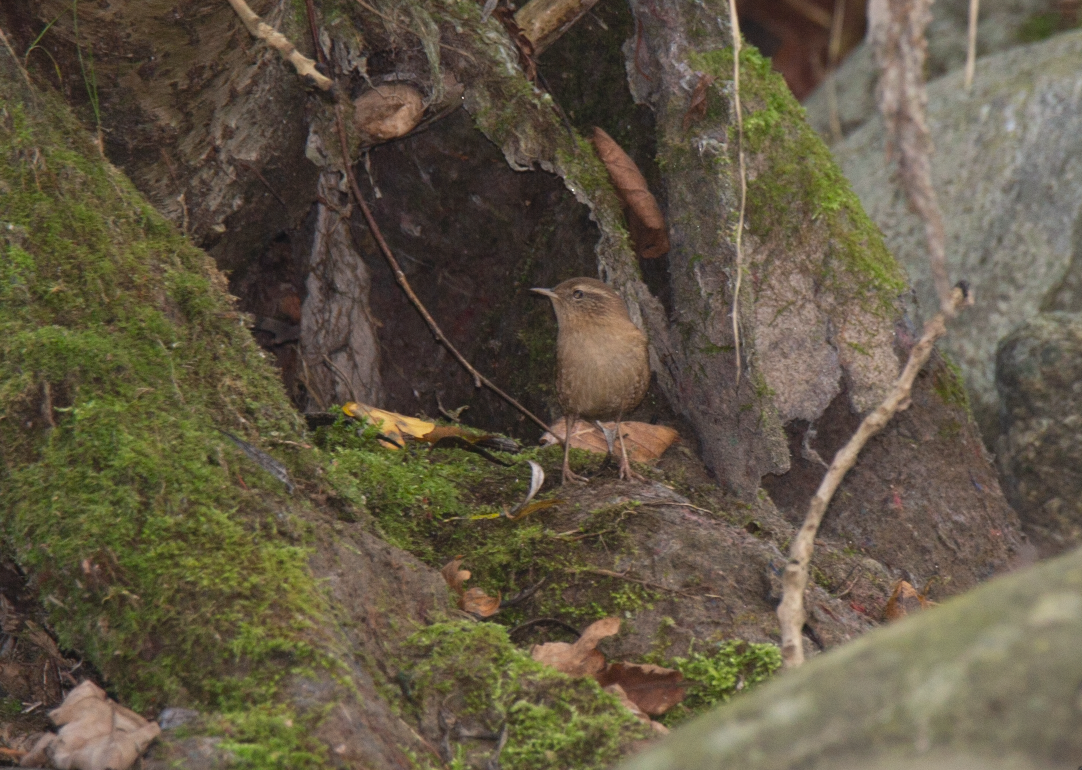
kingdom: Animalia
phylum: Chordata
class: Aves
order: Passeriformes
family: Troglodytidae
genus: Troglodytes
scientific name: Troglodytes troglodytes
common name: Eurasian wren
